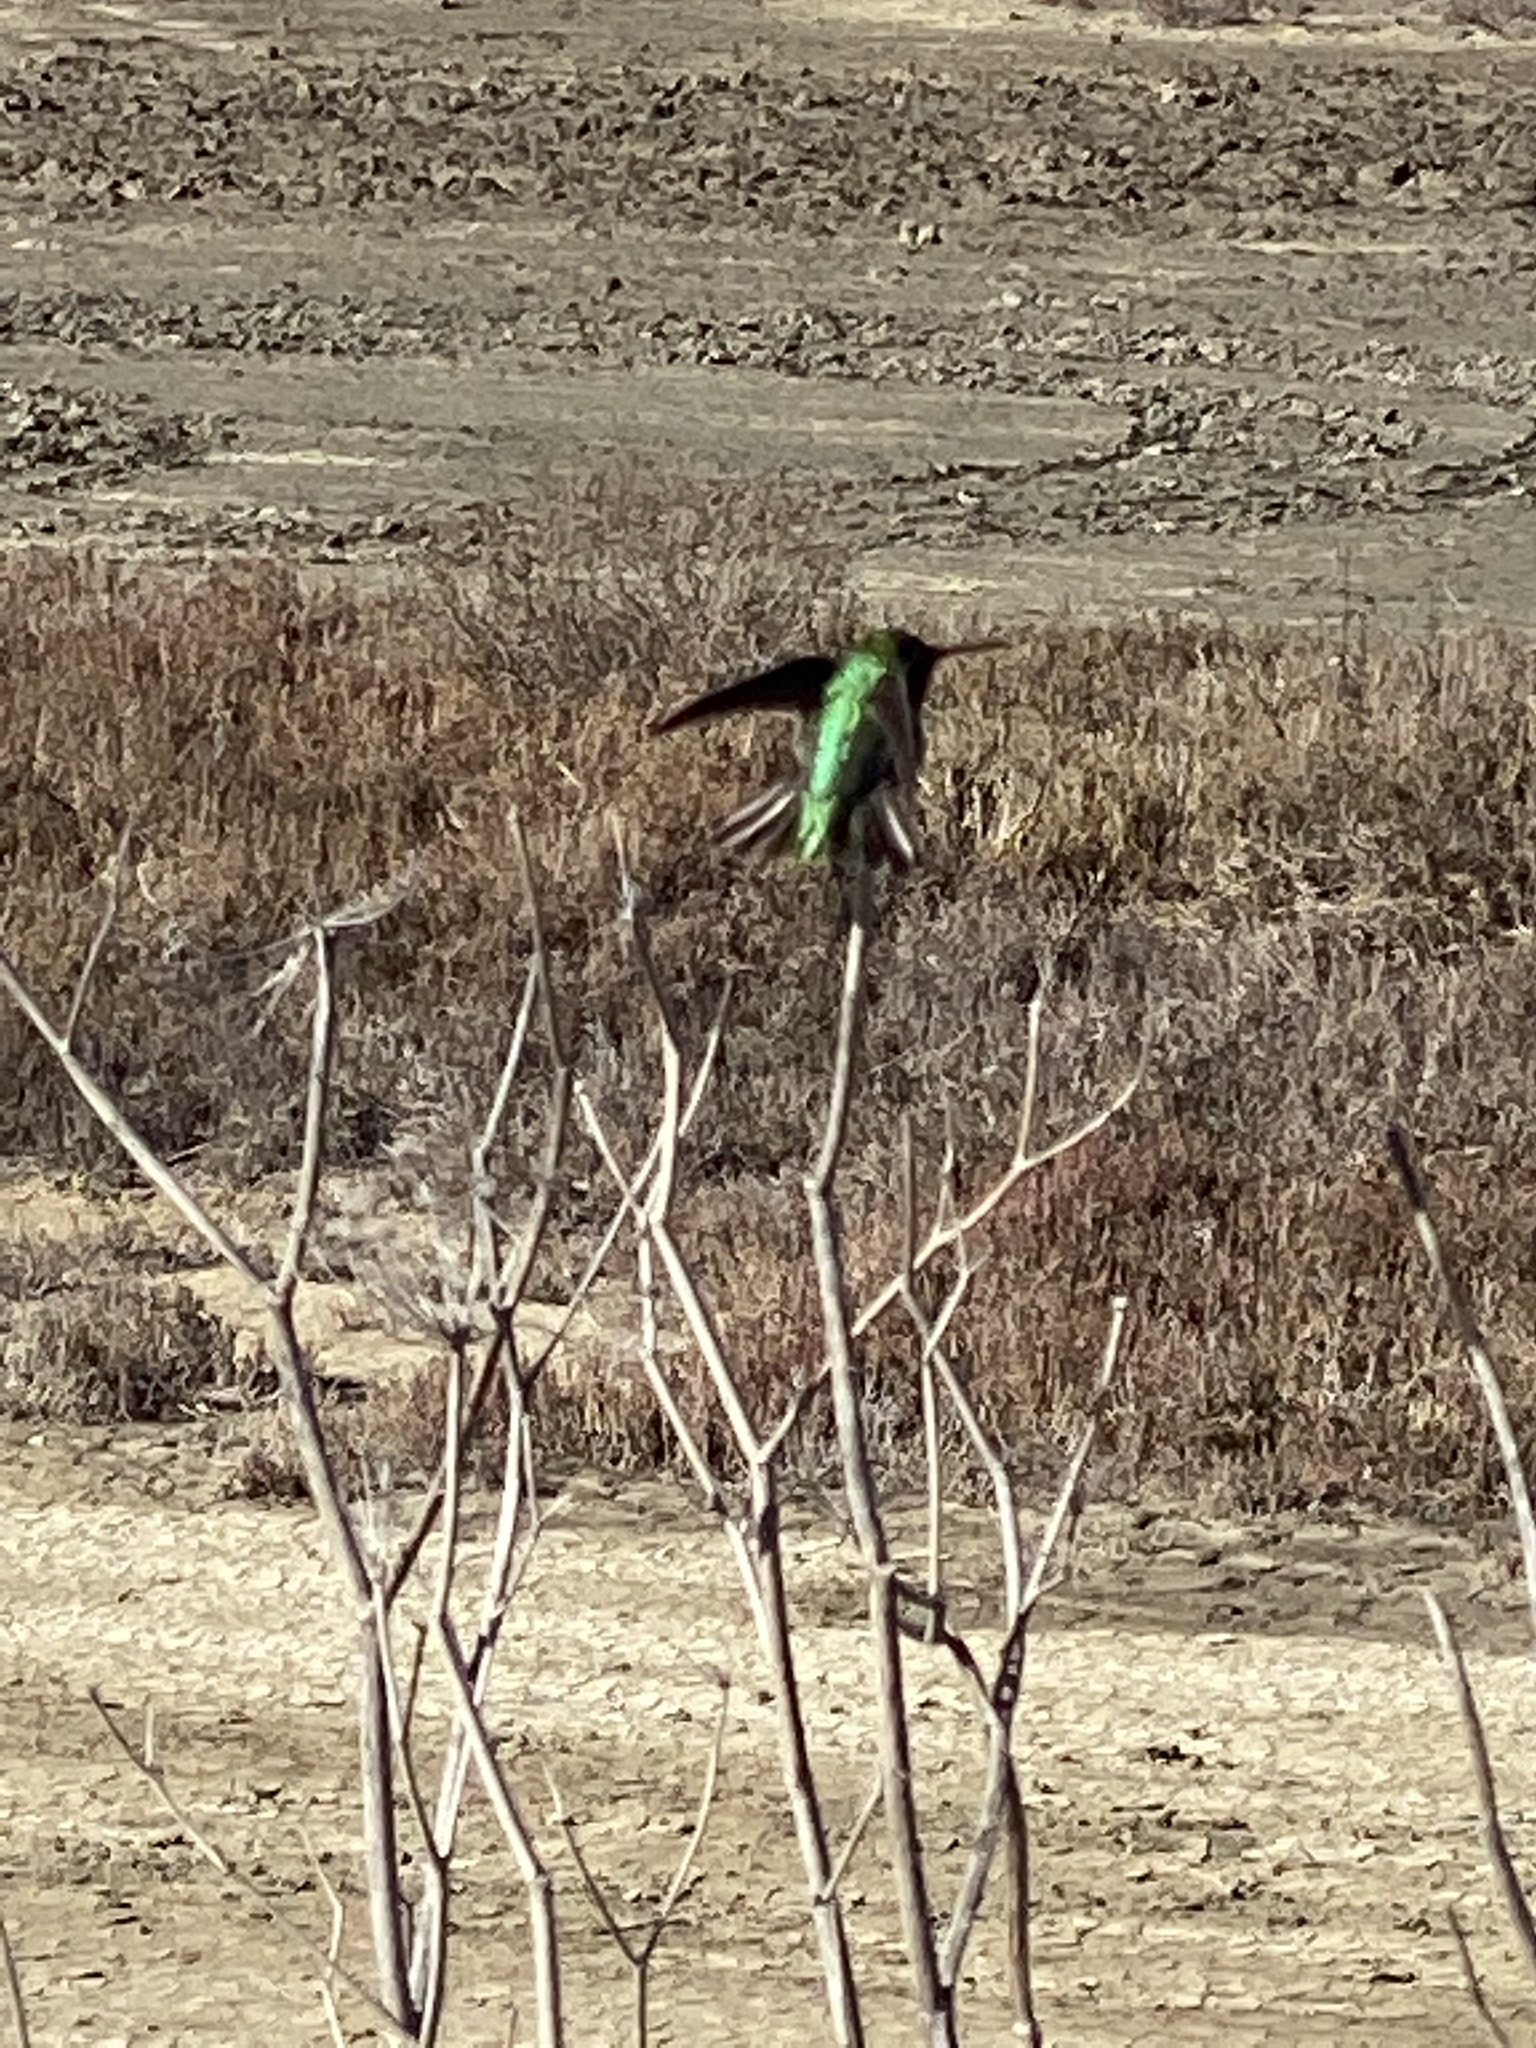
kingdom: Animalia
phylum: Chordata
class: Aves
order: Apodiformes
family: Trochilidae
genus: Calypte
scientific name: Calypte anna
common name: Anna's hummingbird
